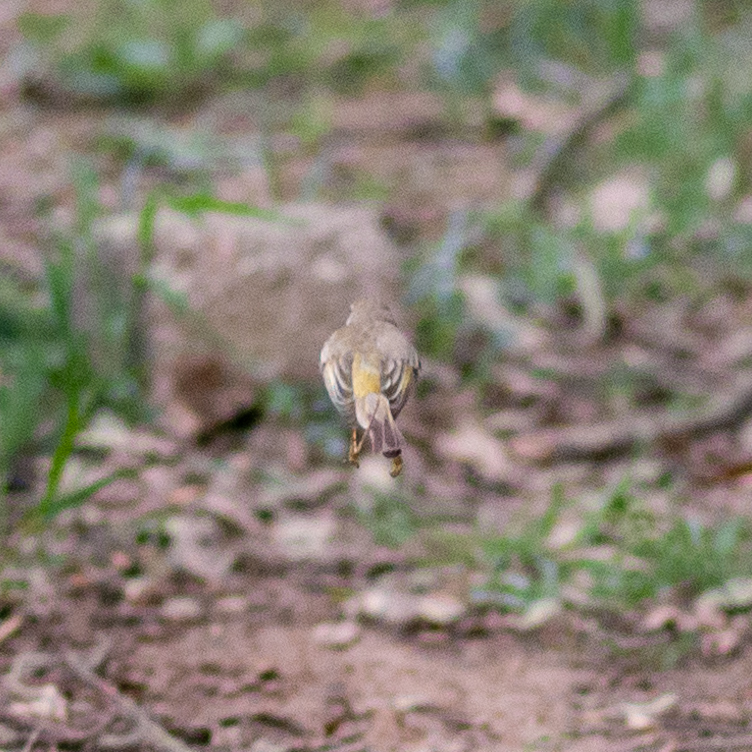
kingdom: Animalia
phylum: Chordata
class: Aves
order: Passeriformes
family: Phylloscopidae
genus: Phylloscopus
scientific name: Phylloscopus bonelli
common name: Western bonelli's warbler
